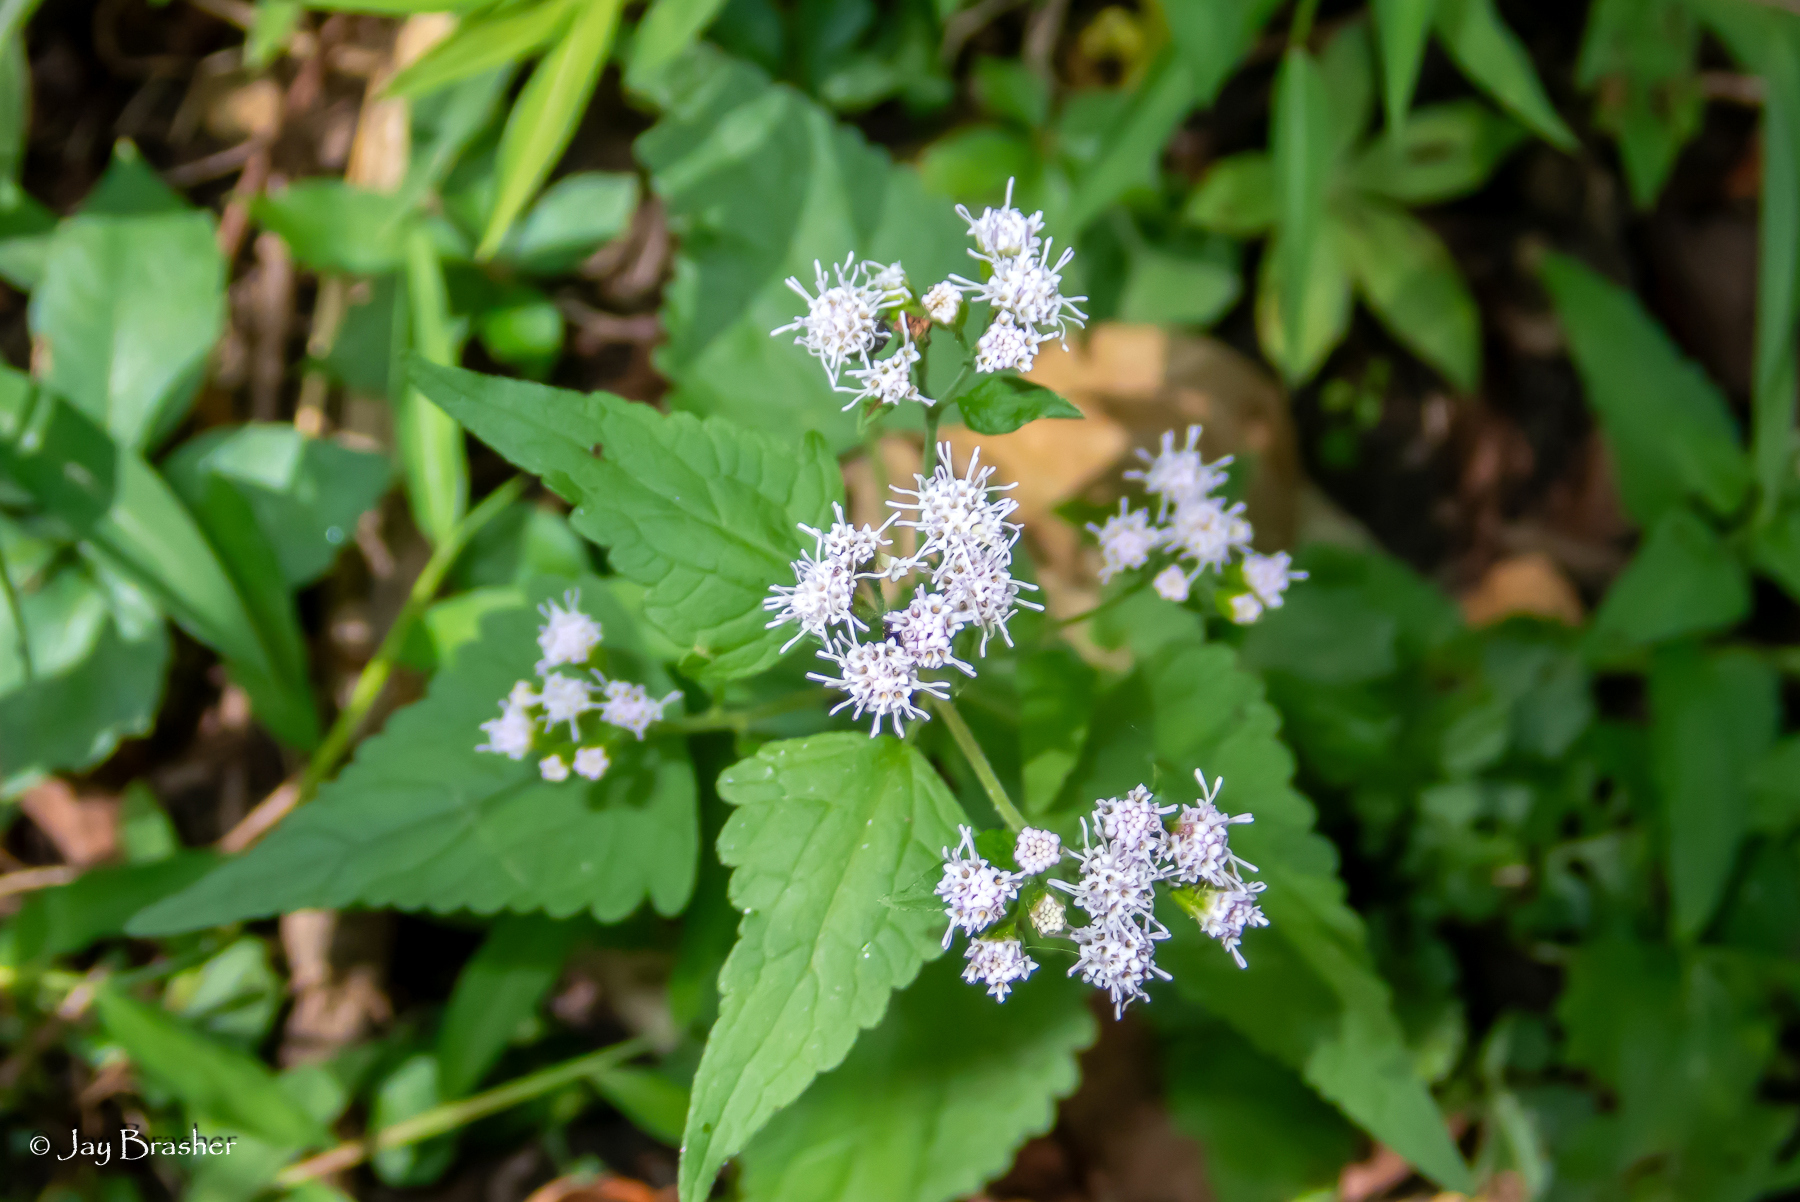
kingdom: Plantae
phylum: Tracheophyta
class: Magnoliopsida
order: Asterales
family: Asteraceae
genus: Fleischmannia
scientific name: Fleischmannia incarnata
